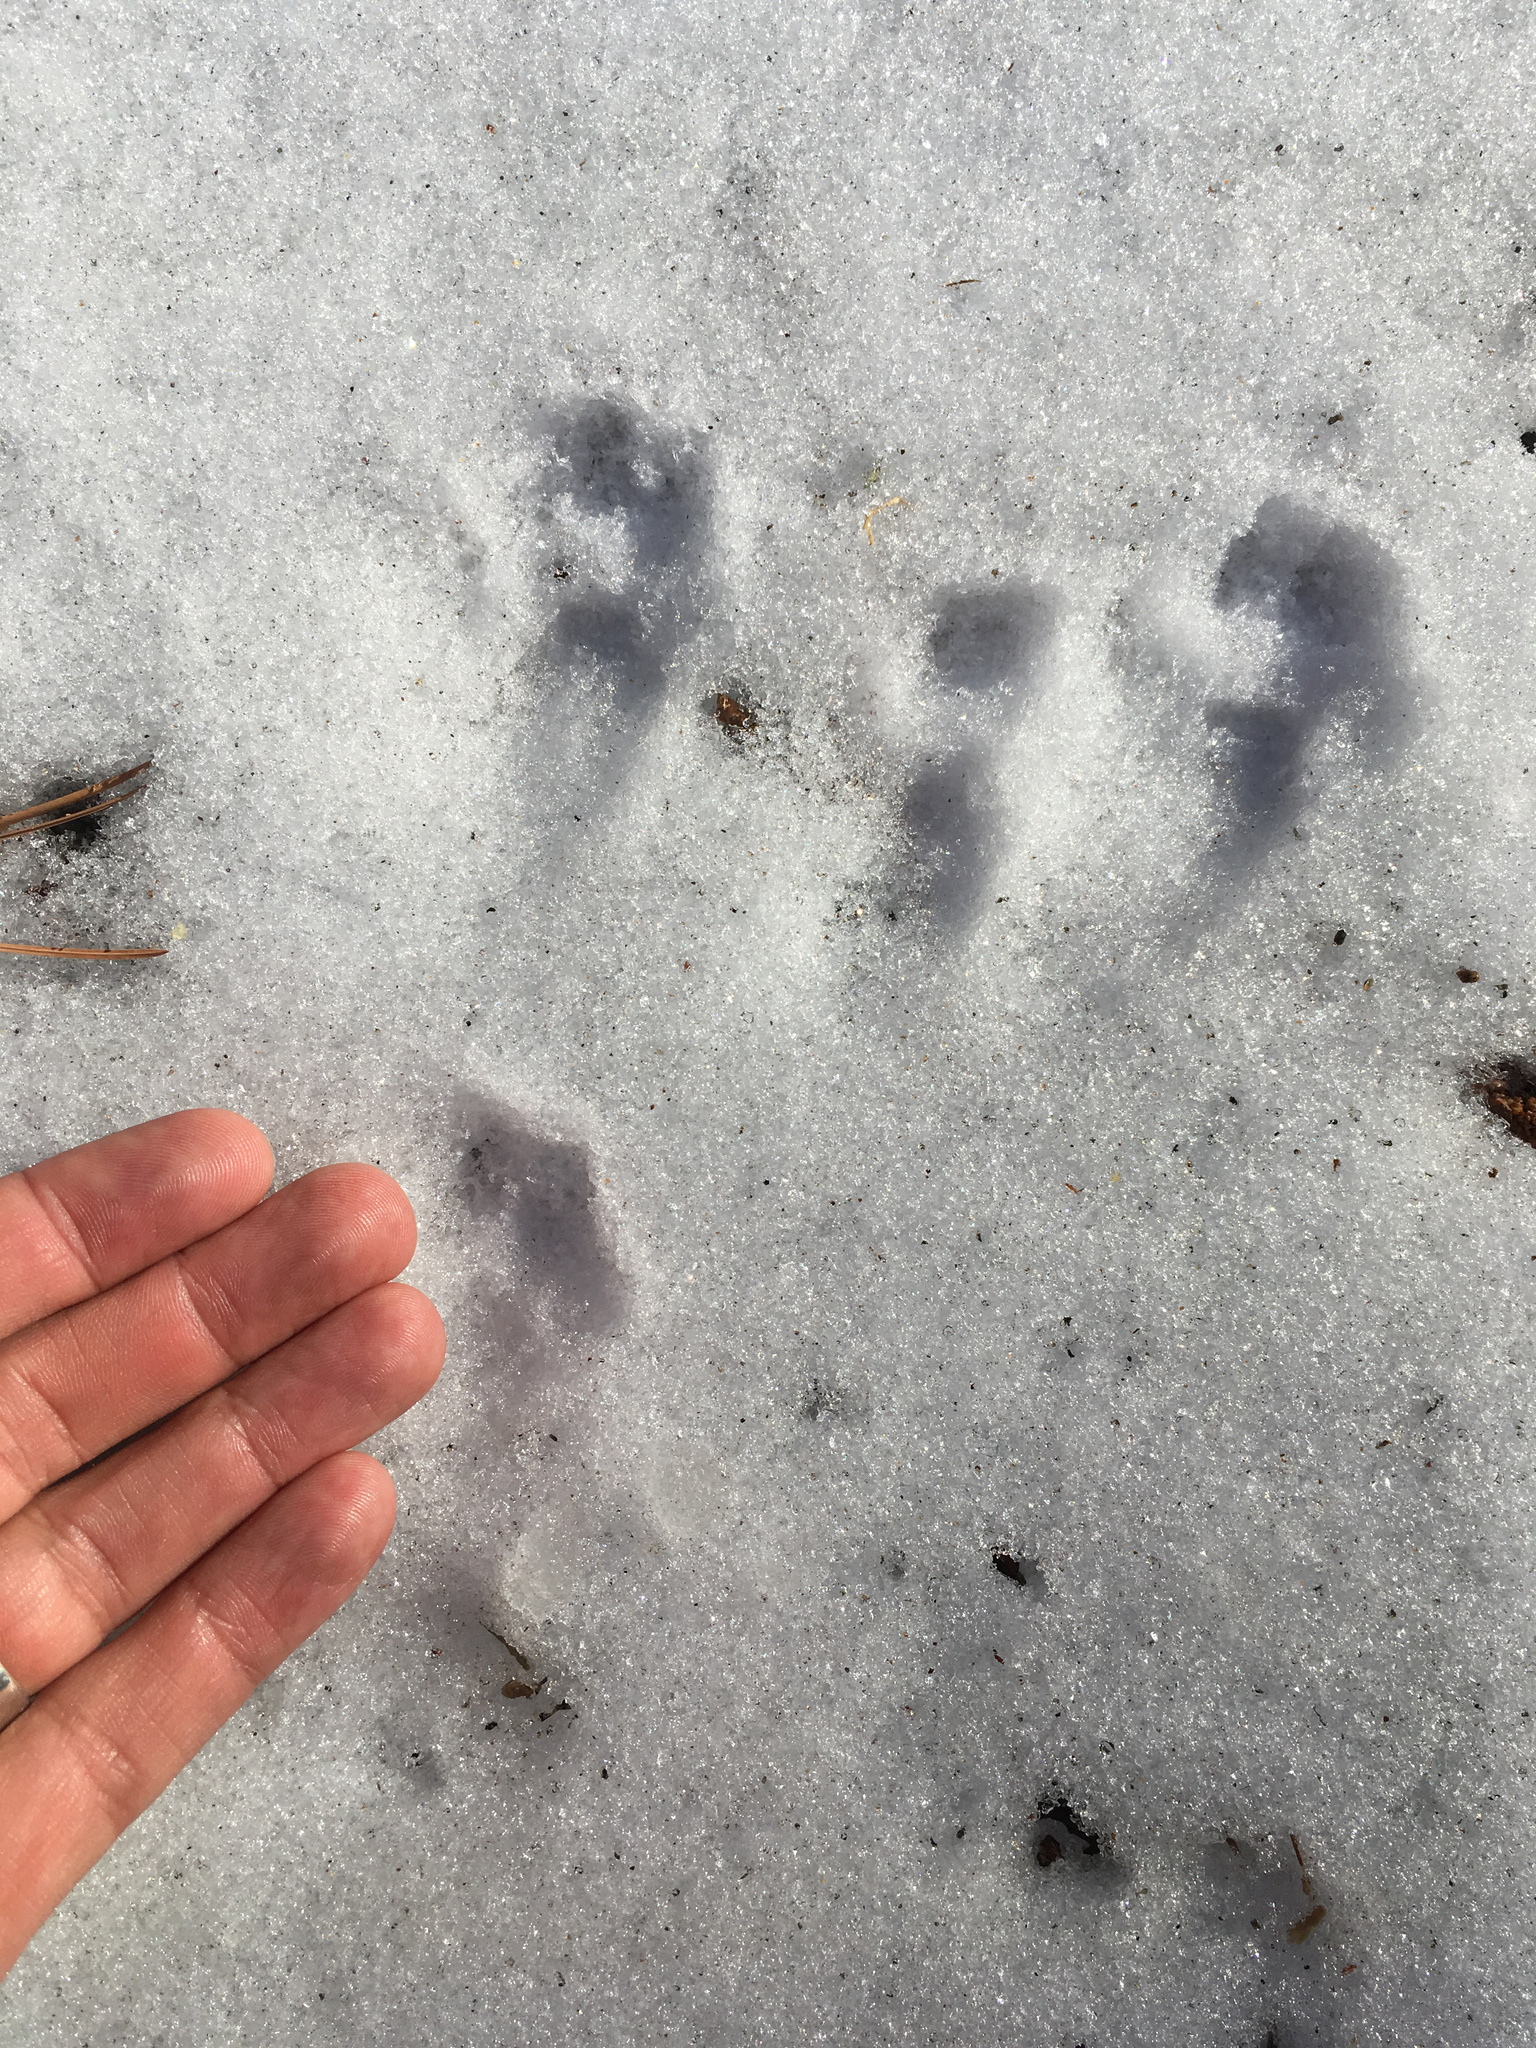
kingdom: Animalia
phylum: Chordata
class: Mammalia
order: Rodentia
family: Sciuridae
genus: Sciurus
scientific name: Sciurus griseus
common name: Western gray squirrel
